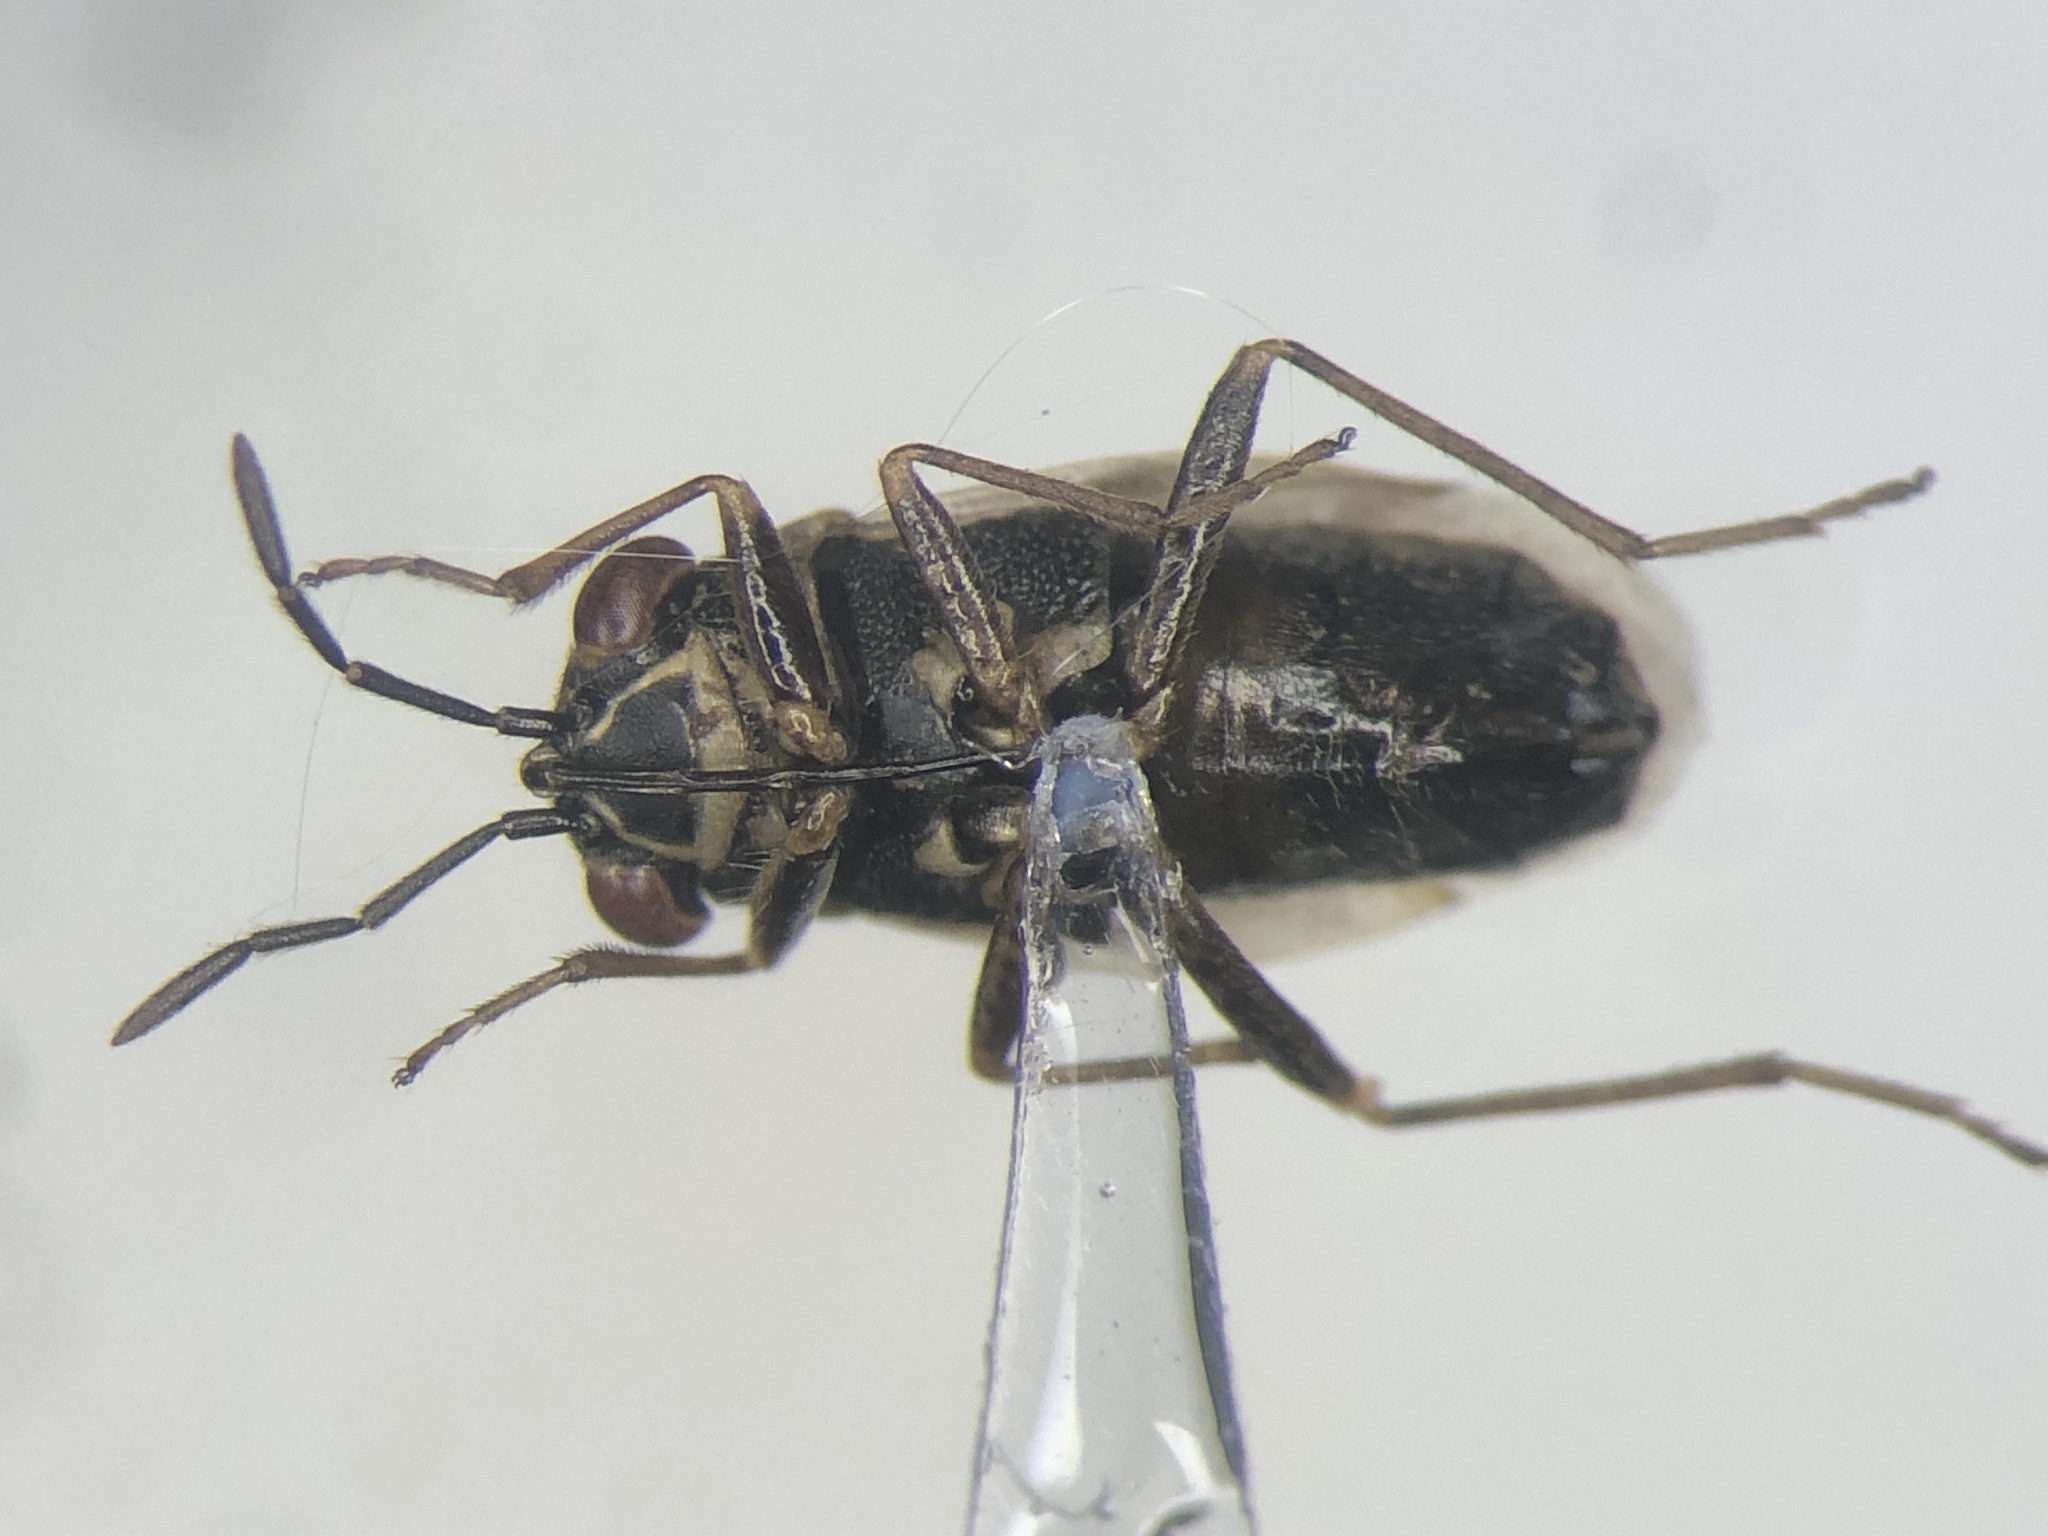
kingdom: Animalia
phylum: Arthropoda
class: Insecta
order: Hemiptera
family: Geocoridae
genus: Geocoris
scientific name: Geocoris bullatus
